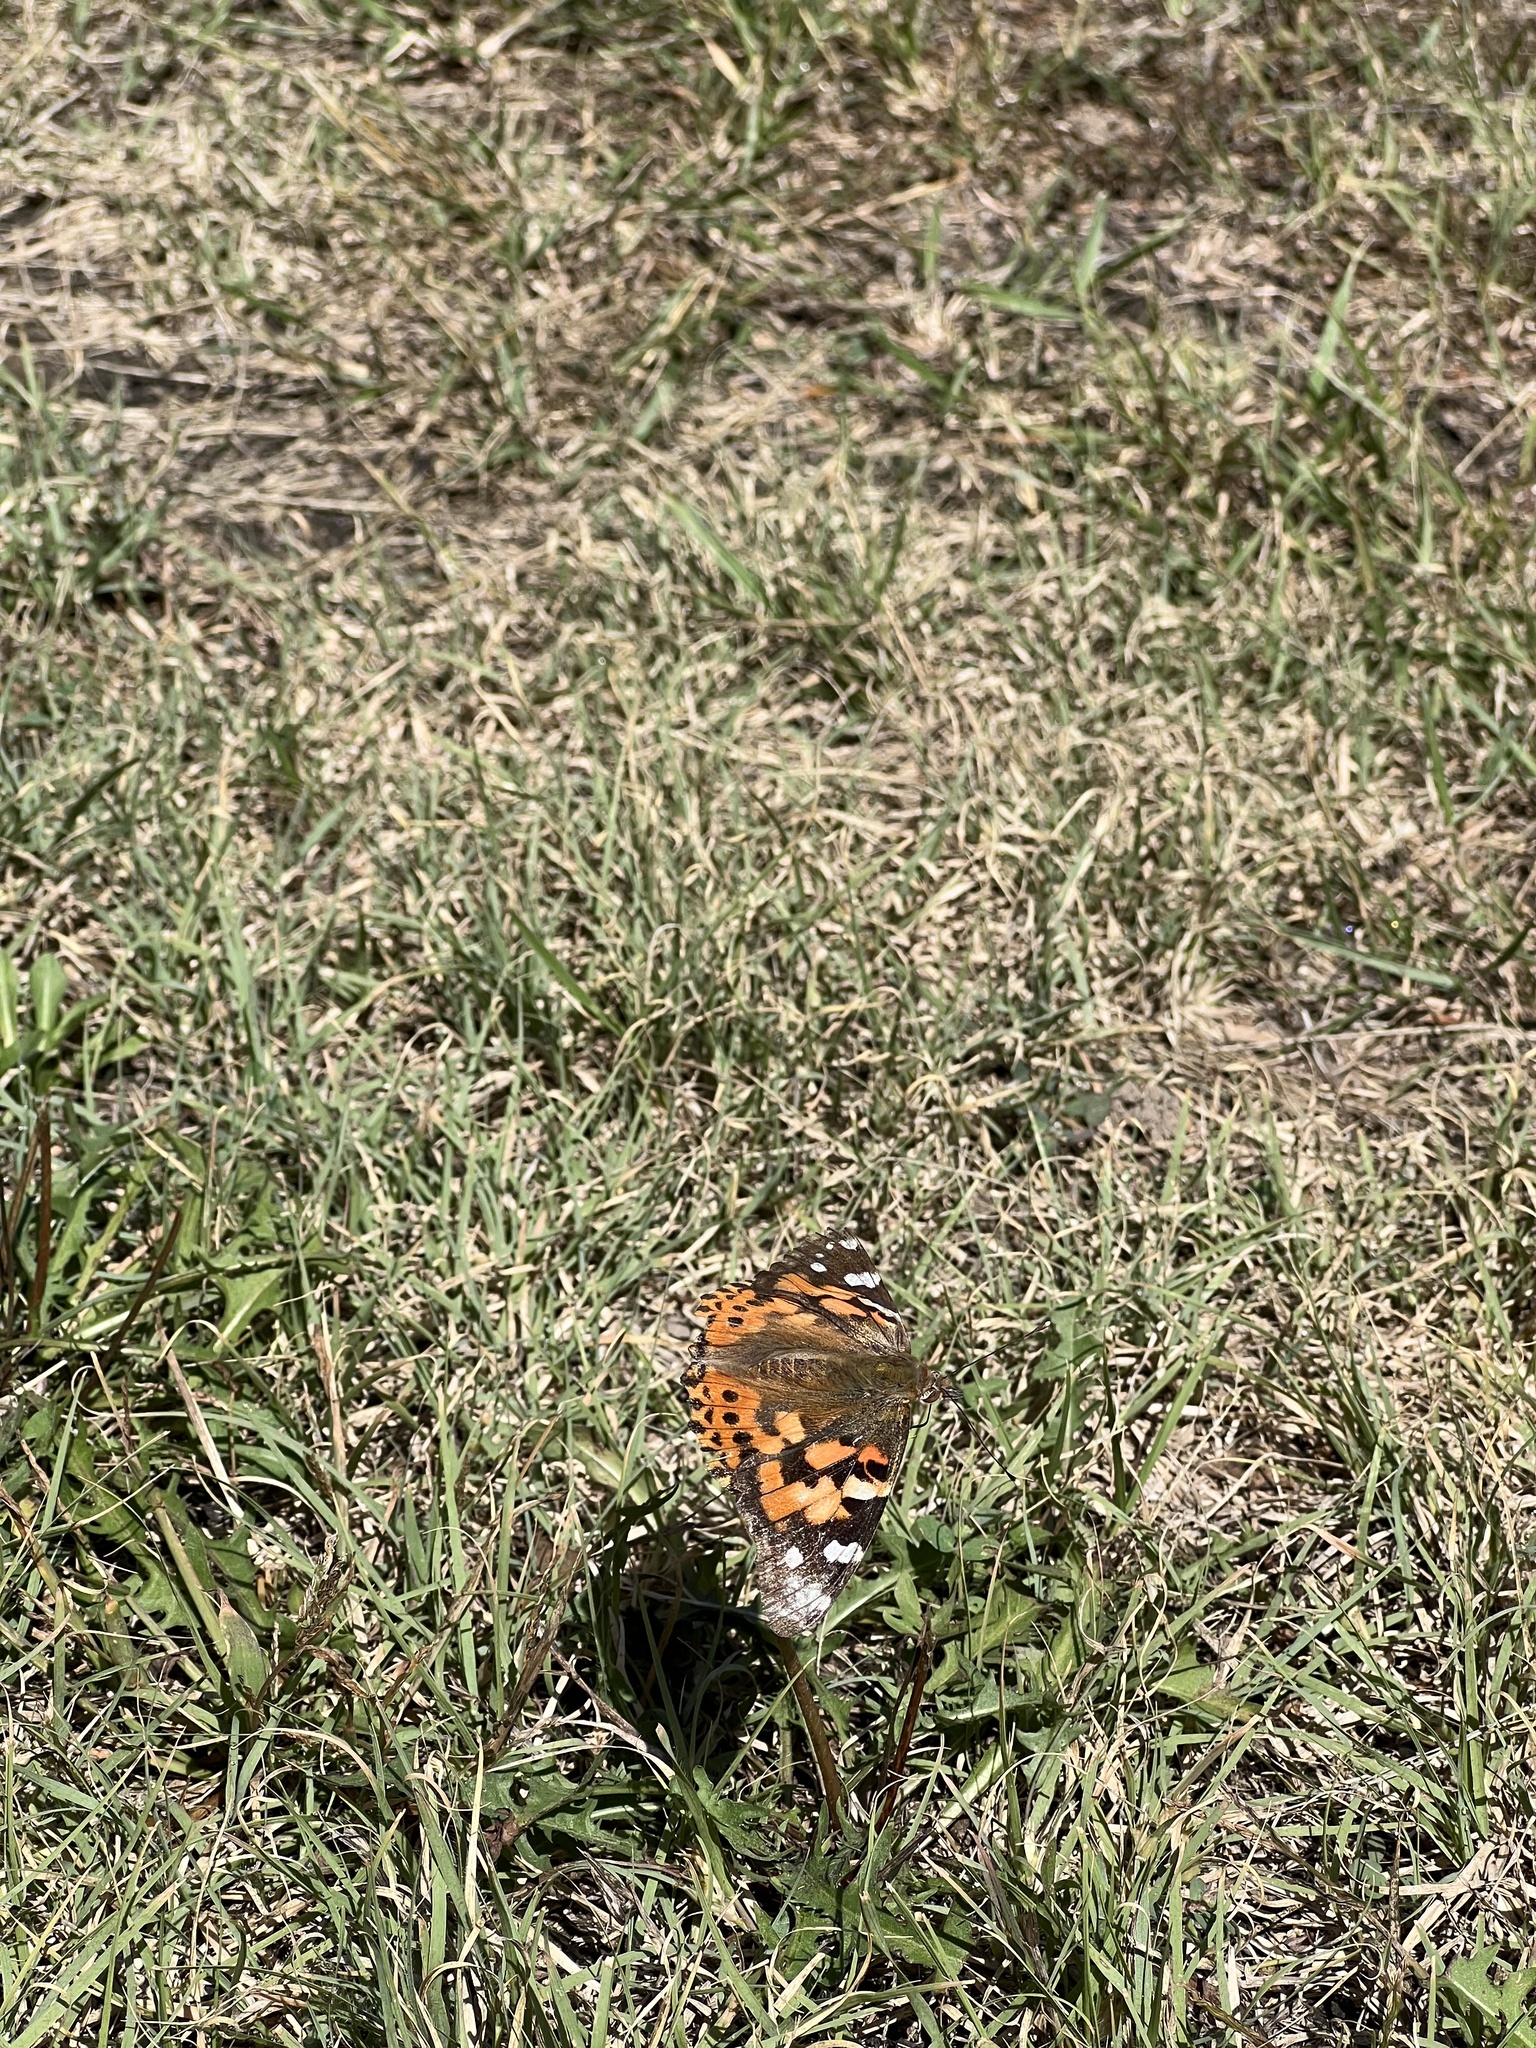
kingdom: Animalia
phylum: Arthropoda
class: Insecta
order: Lepidoptera
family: Nymphalidae
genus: Vanessa
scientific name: Vanessa cardui
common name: Painted lady
